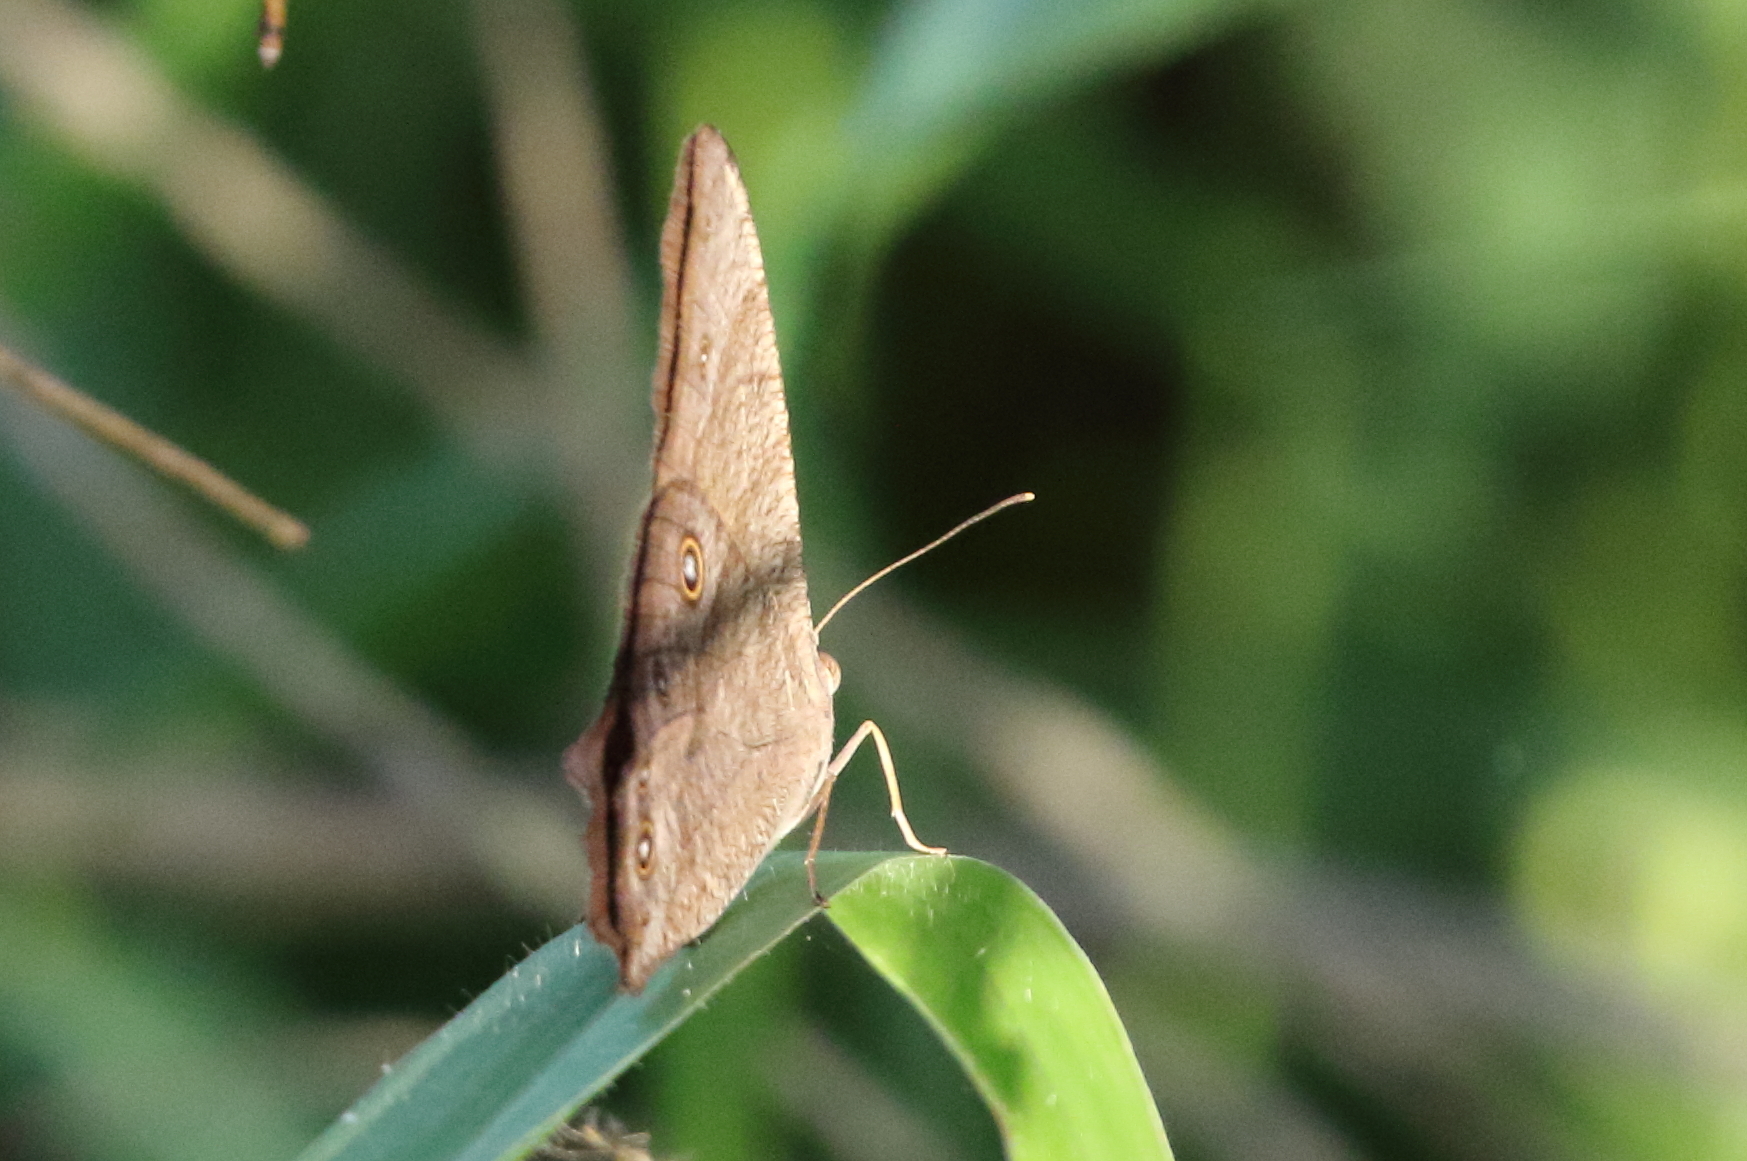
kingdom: Animalia
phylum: Arthropoda
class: Insecta
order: Lepidoptera
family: Nymphalidae
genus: Melanitis
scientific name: Melanitis leda
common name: Twilight brown
